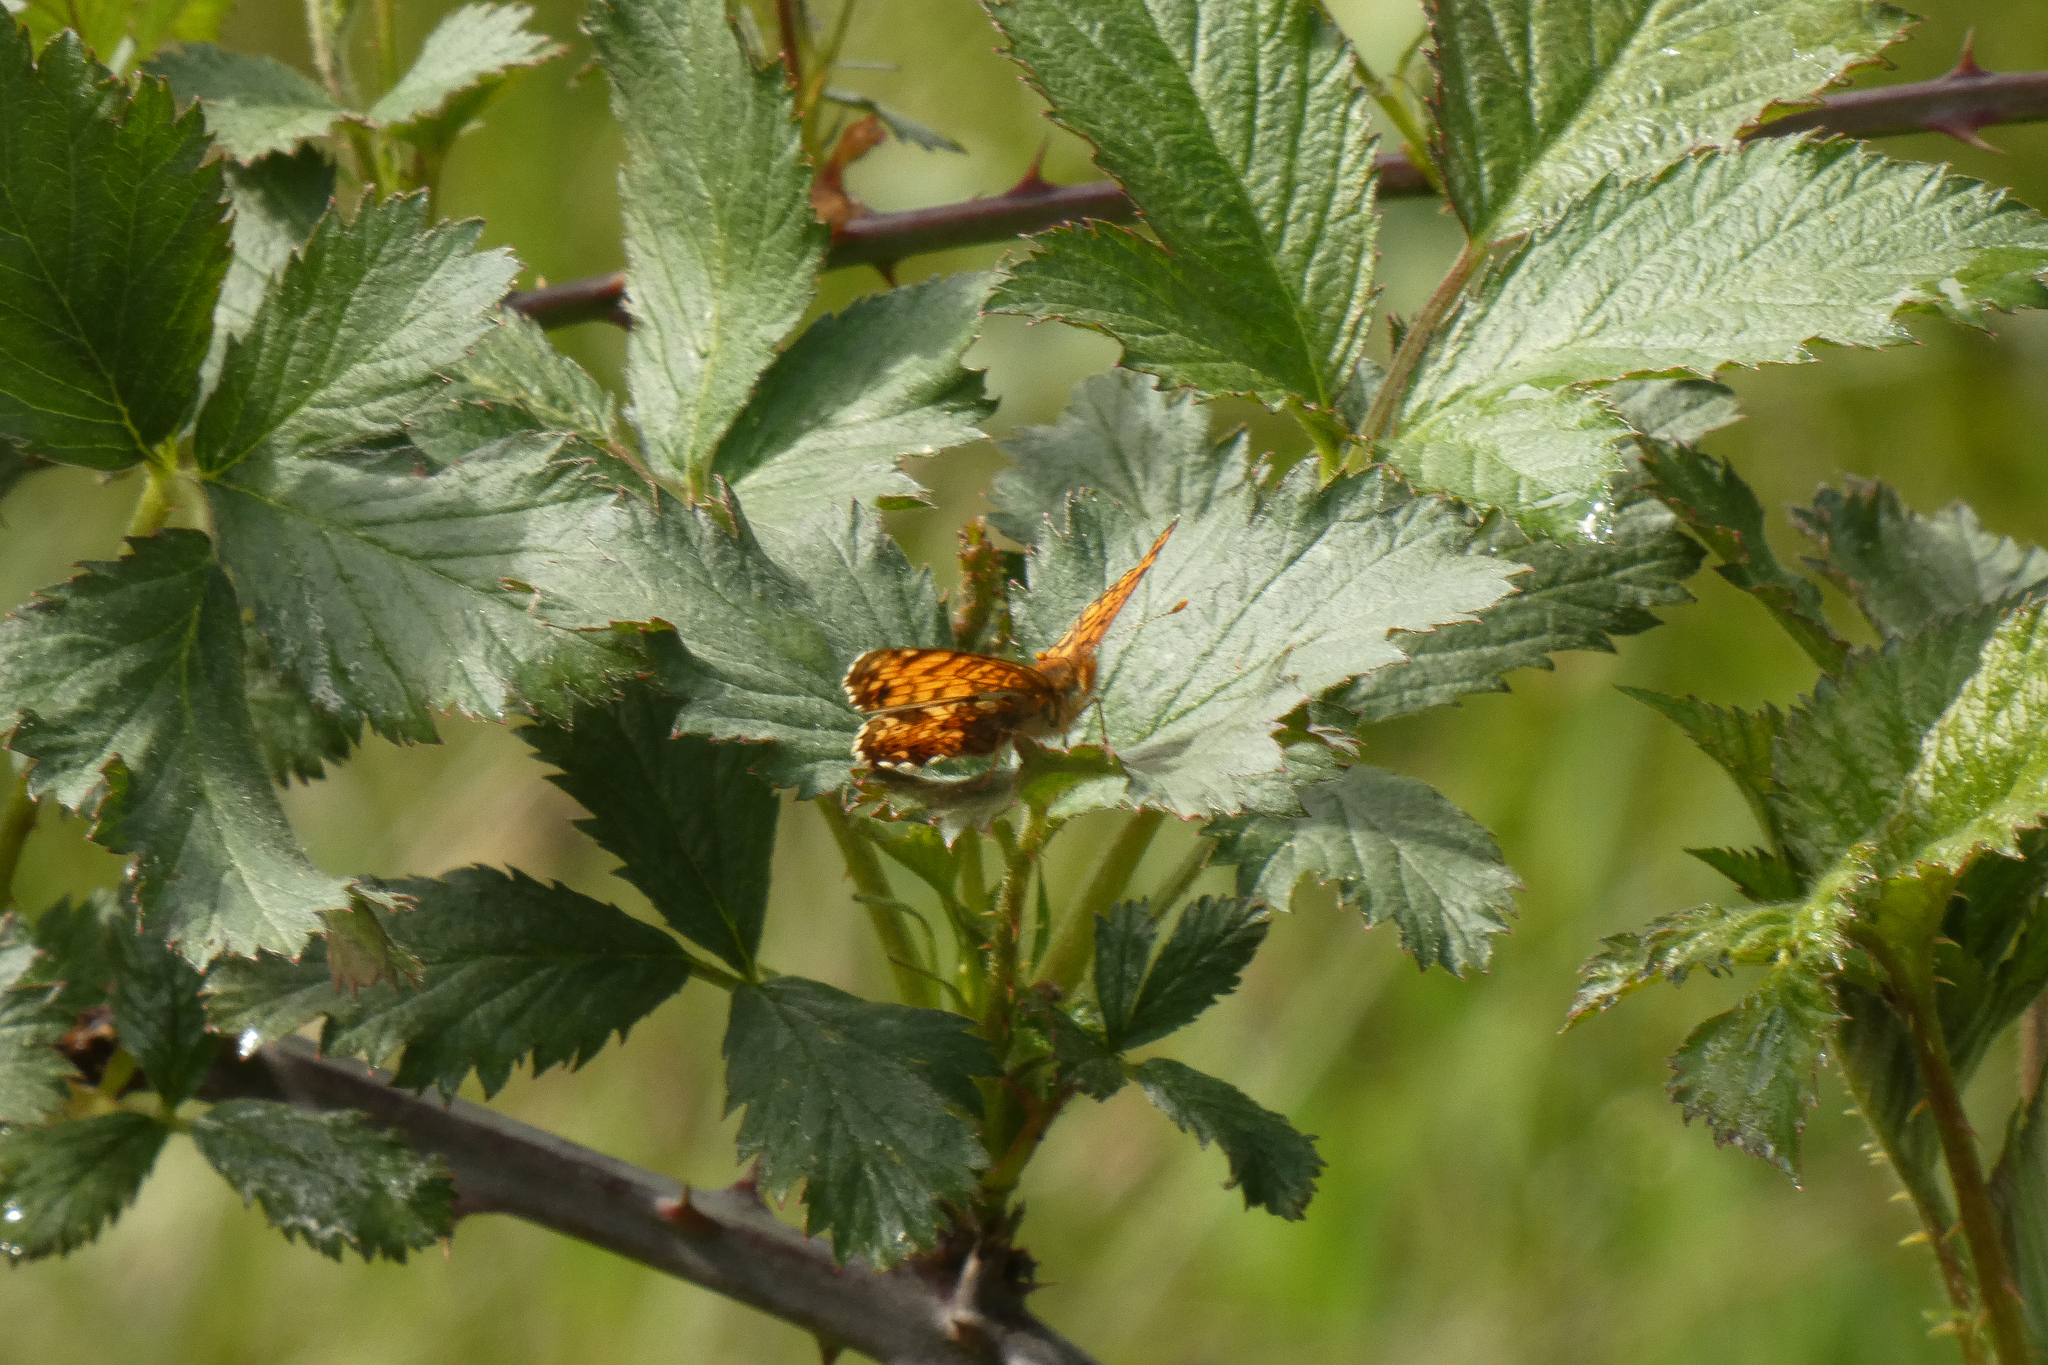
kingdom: Animalia
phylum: Arthropoda
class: Insecta
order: Lepidoptera
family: Nymphalidae
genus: Eresia
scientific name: Eresia aveyrona
